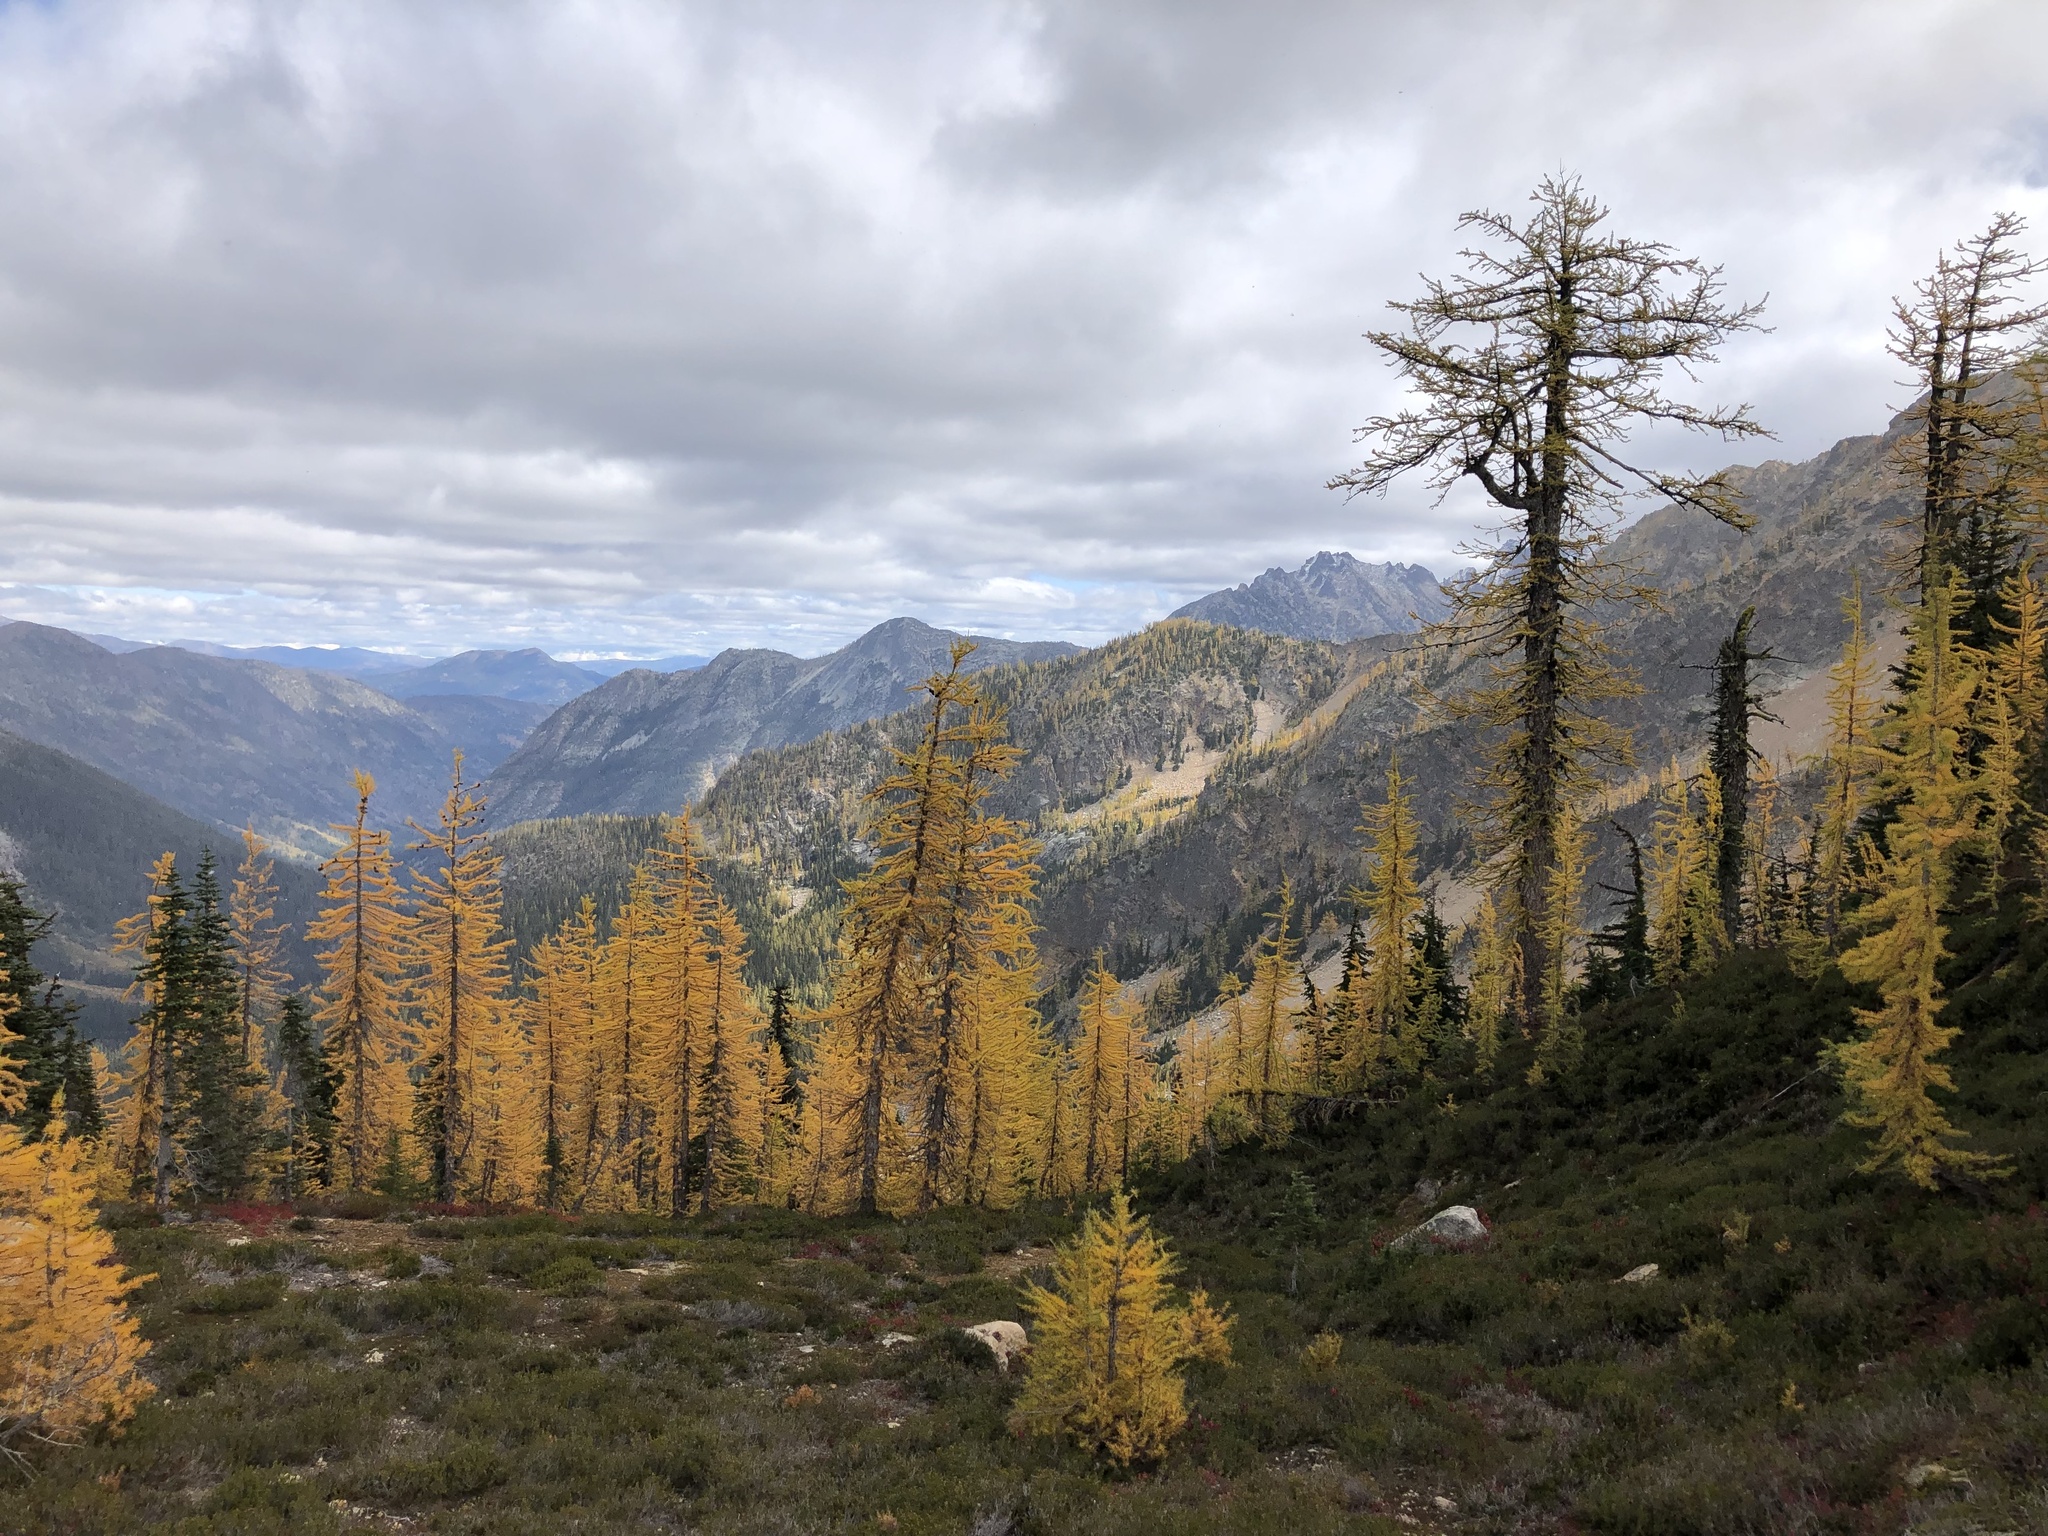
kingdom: Plantae
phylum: Tracheophyta
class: Pinopsida
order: Pinales
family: Pinaceae
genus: Larix
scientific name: Larix lyallii
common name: Alpine larch
